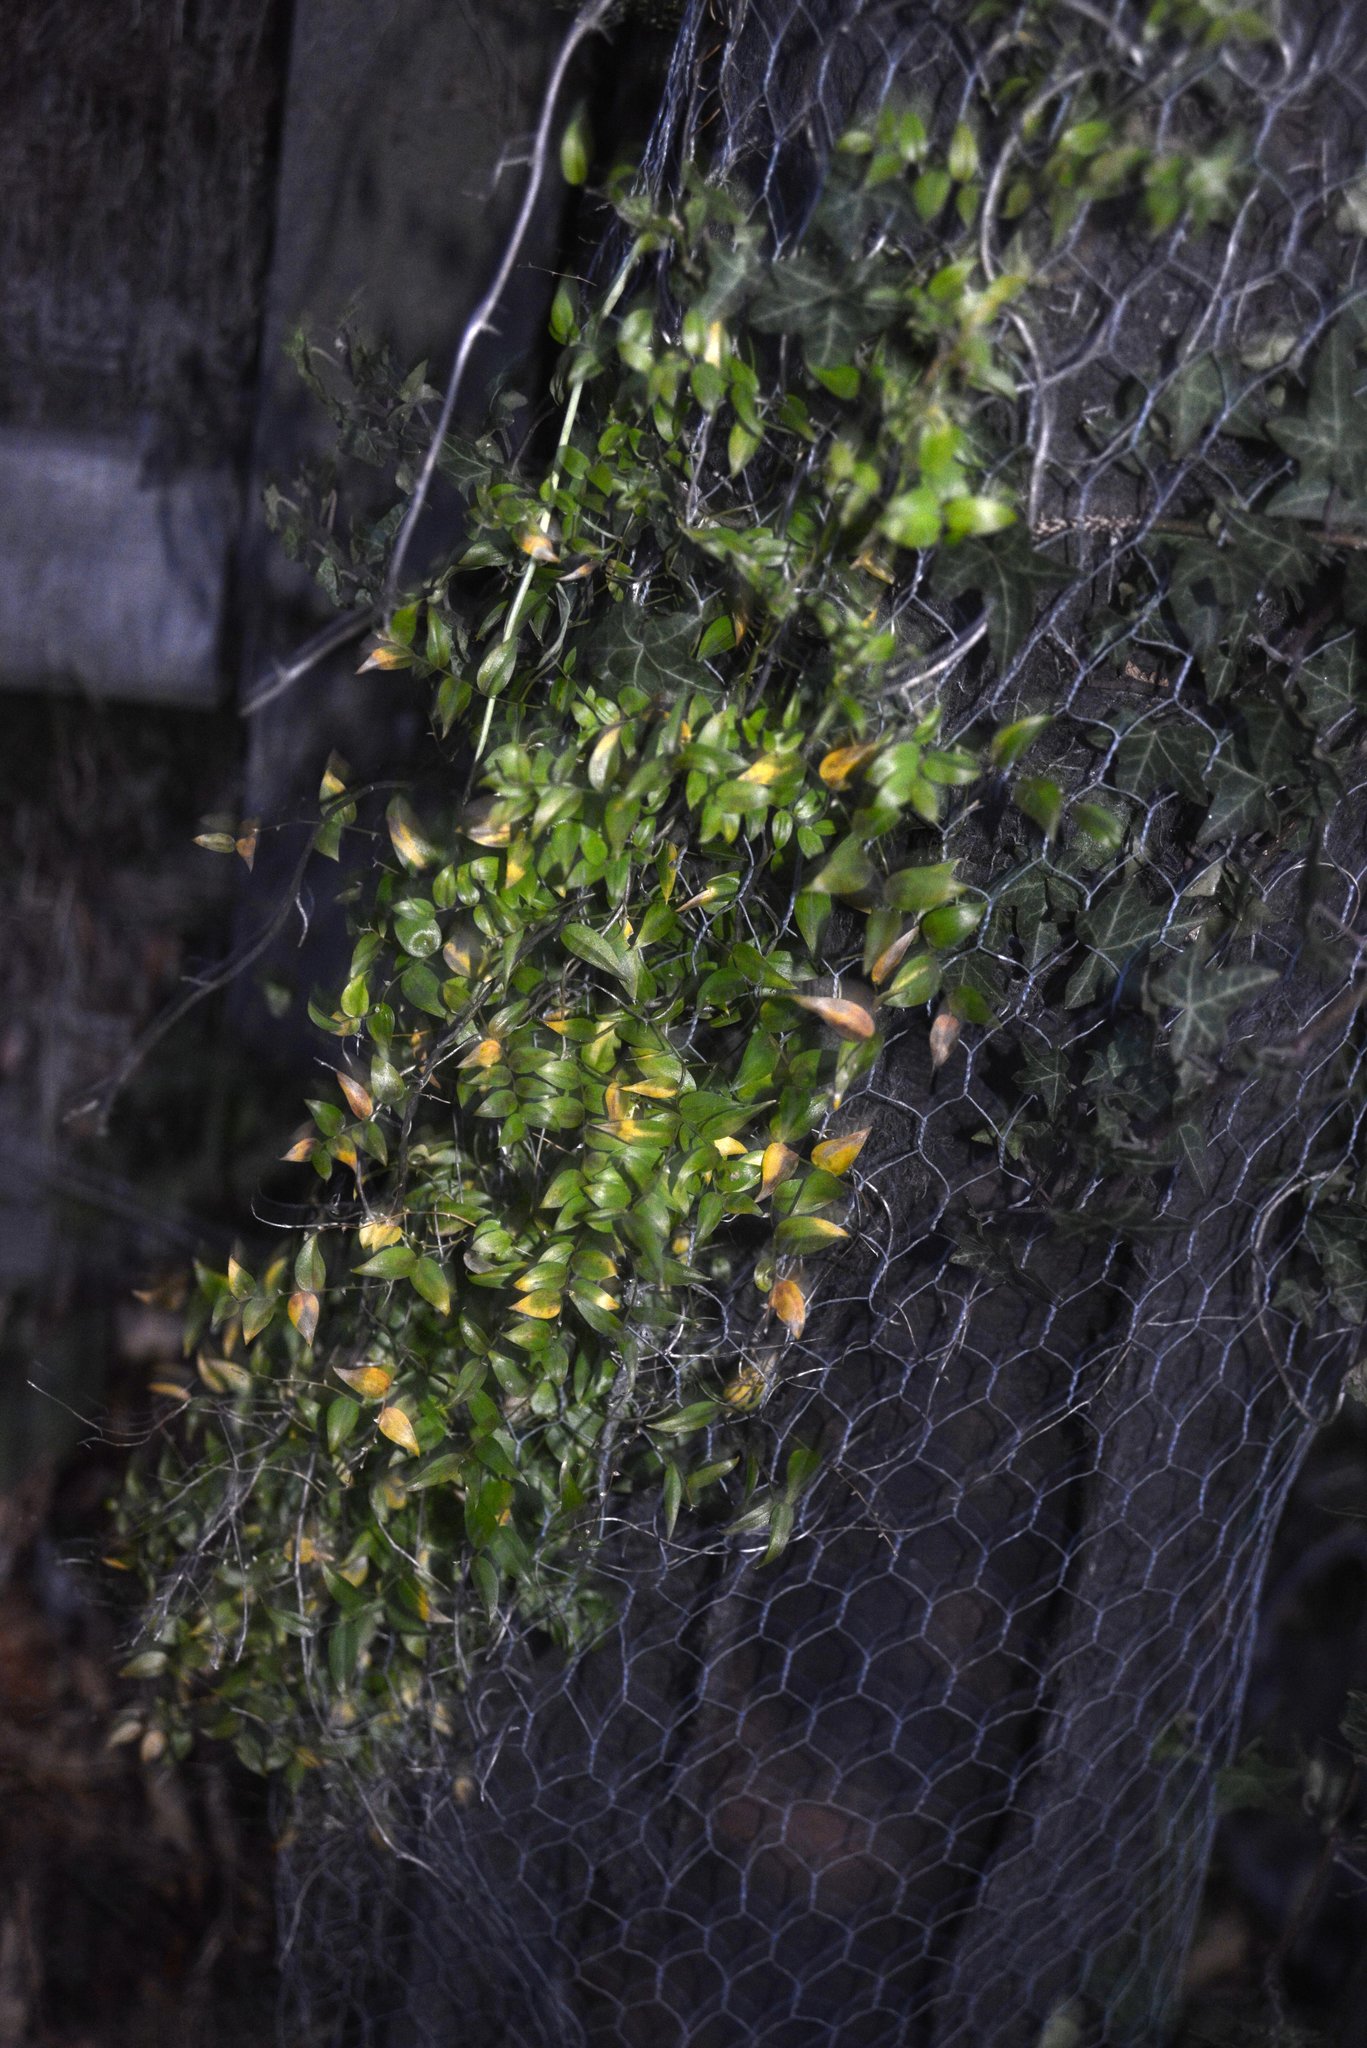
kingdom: Plantae
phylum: Tracheophyta
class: Liliopsida
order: Asparagales
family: Asparagaceae
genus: Asparagus
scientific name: Asparagus asparagoides
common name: African asparagus fern
